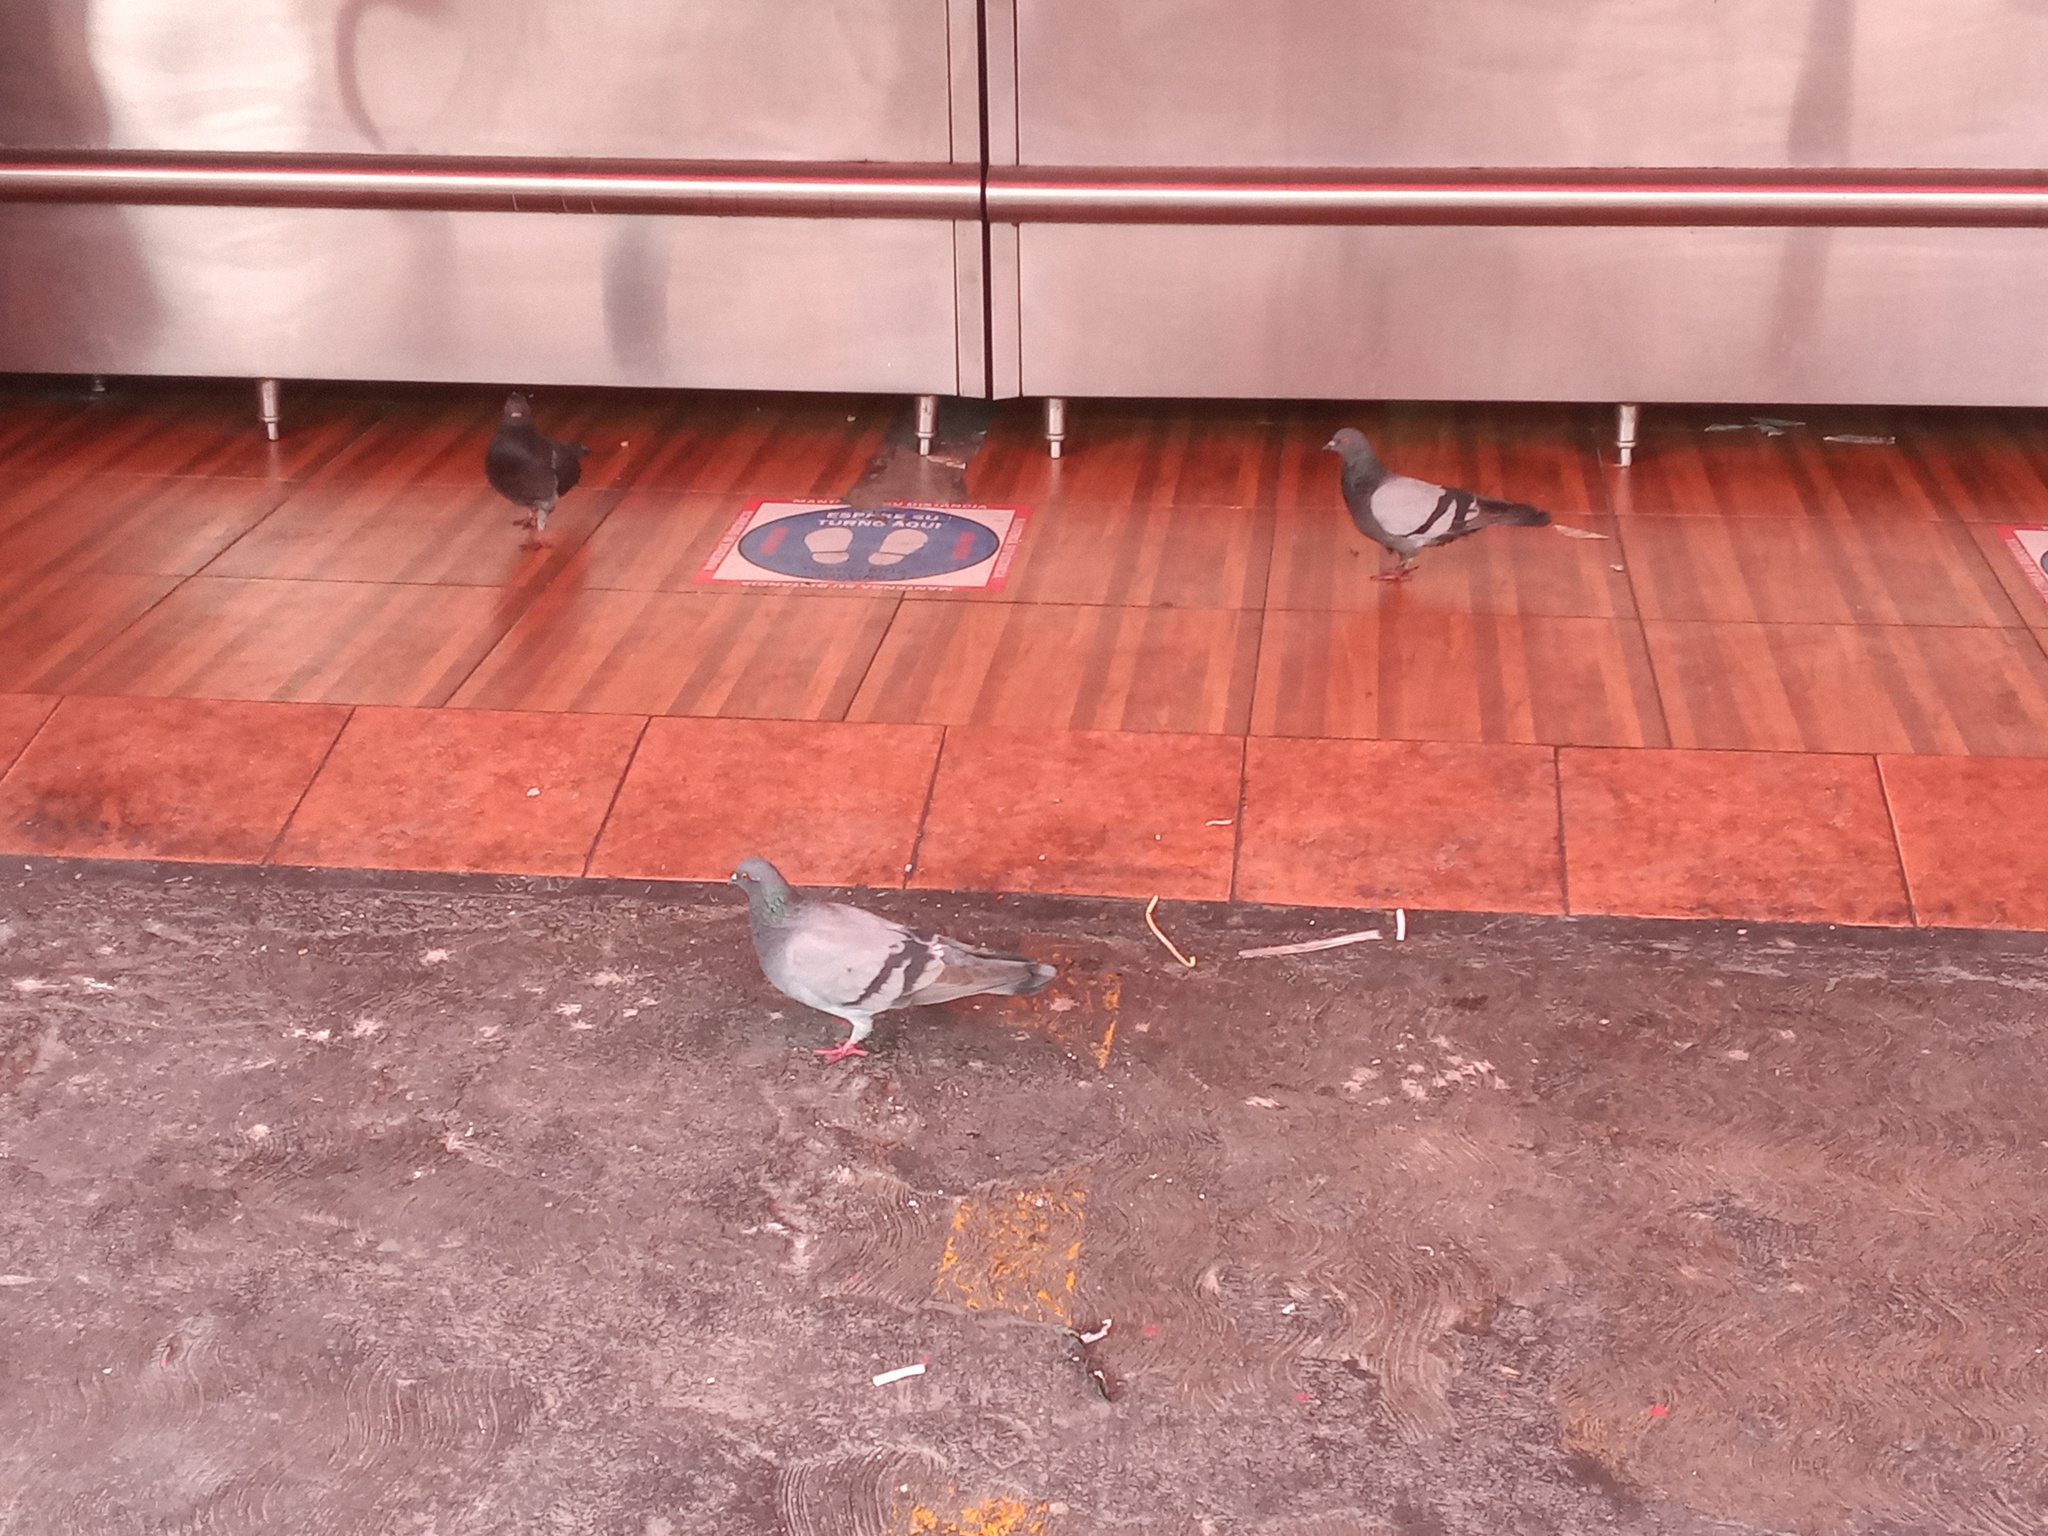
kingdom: Animalia
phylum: Chordata
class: Aves
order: Columbiformes
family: Columbidae
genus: Columba
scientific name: Columba livia
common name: Rock pigeon
